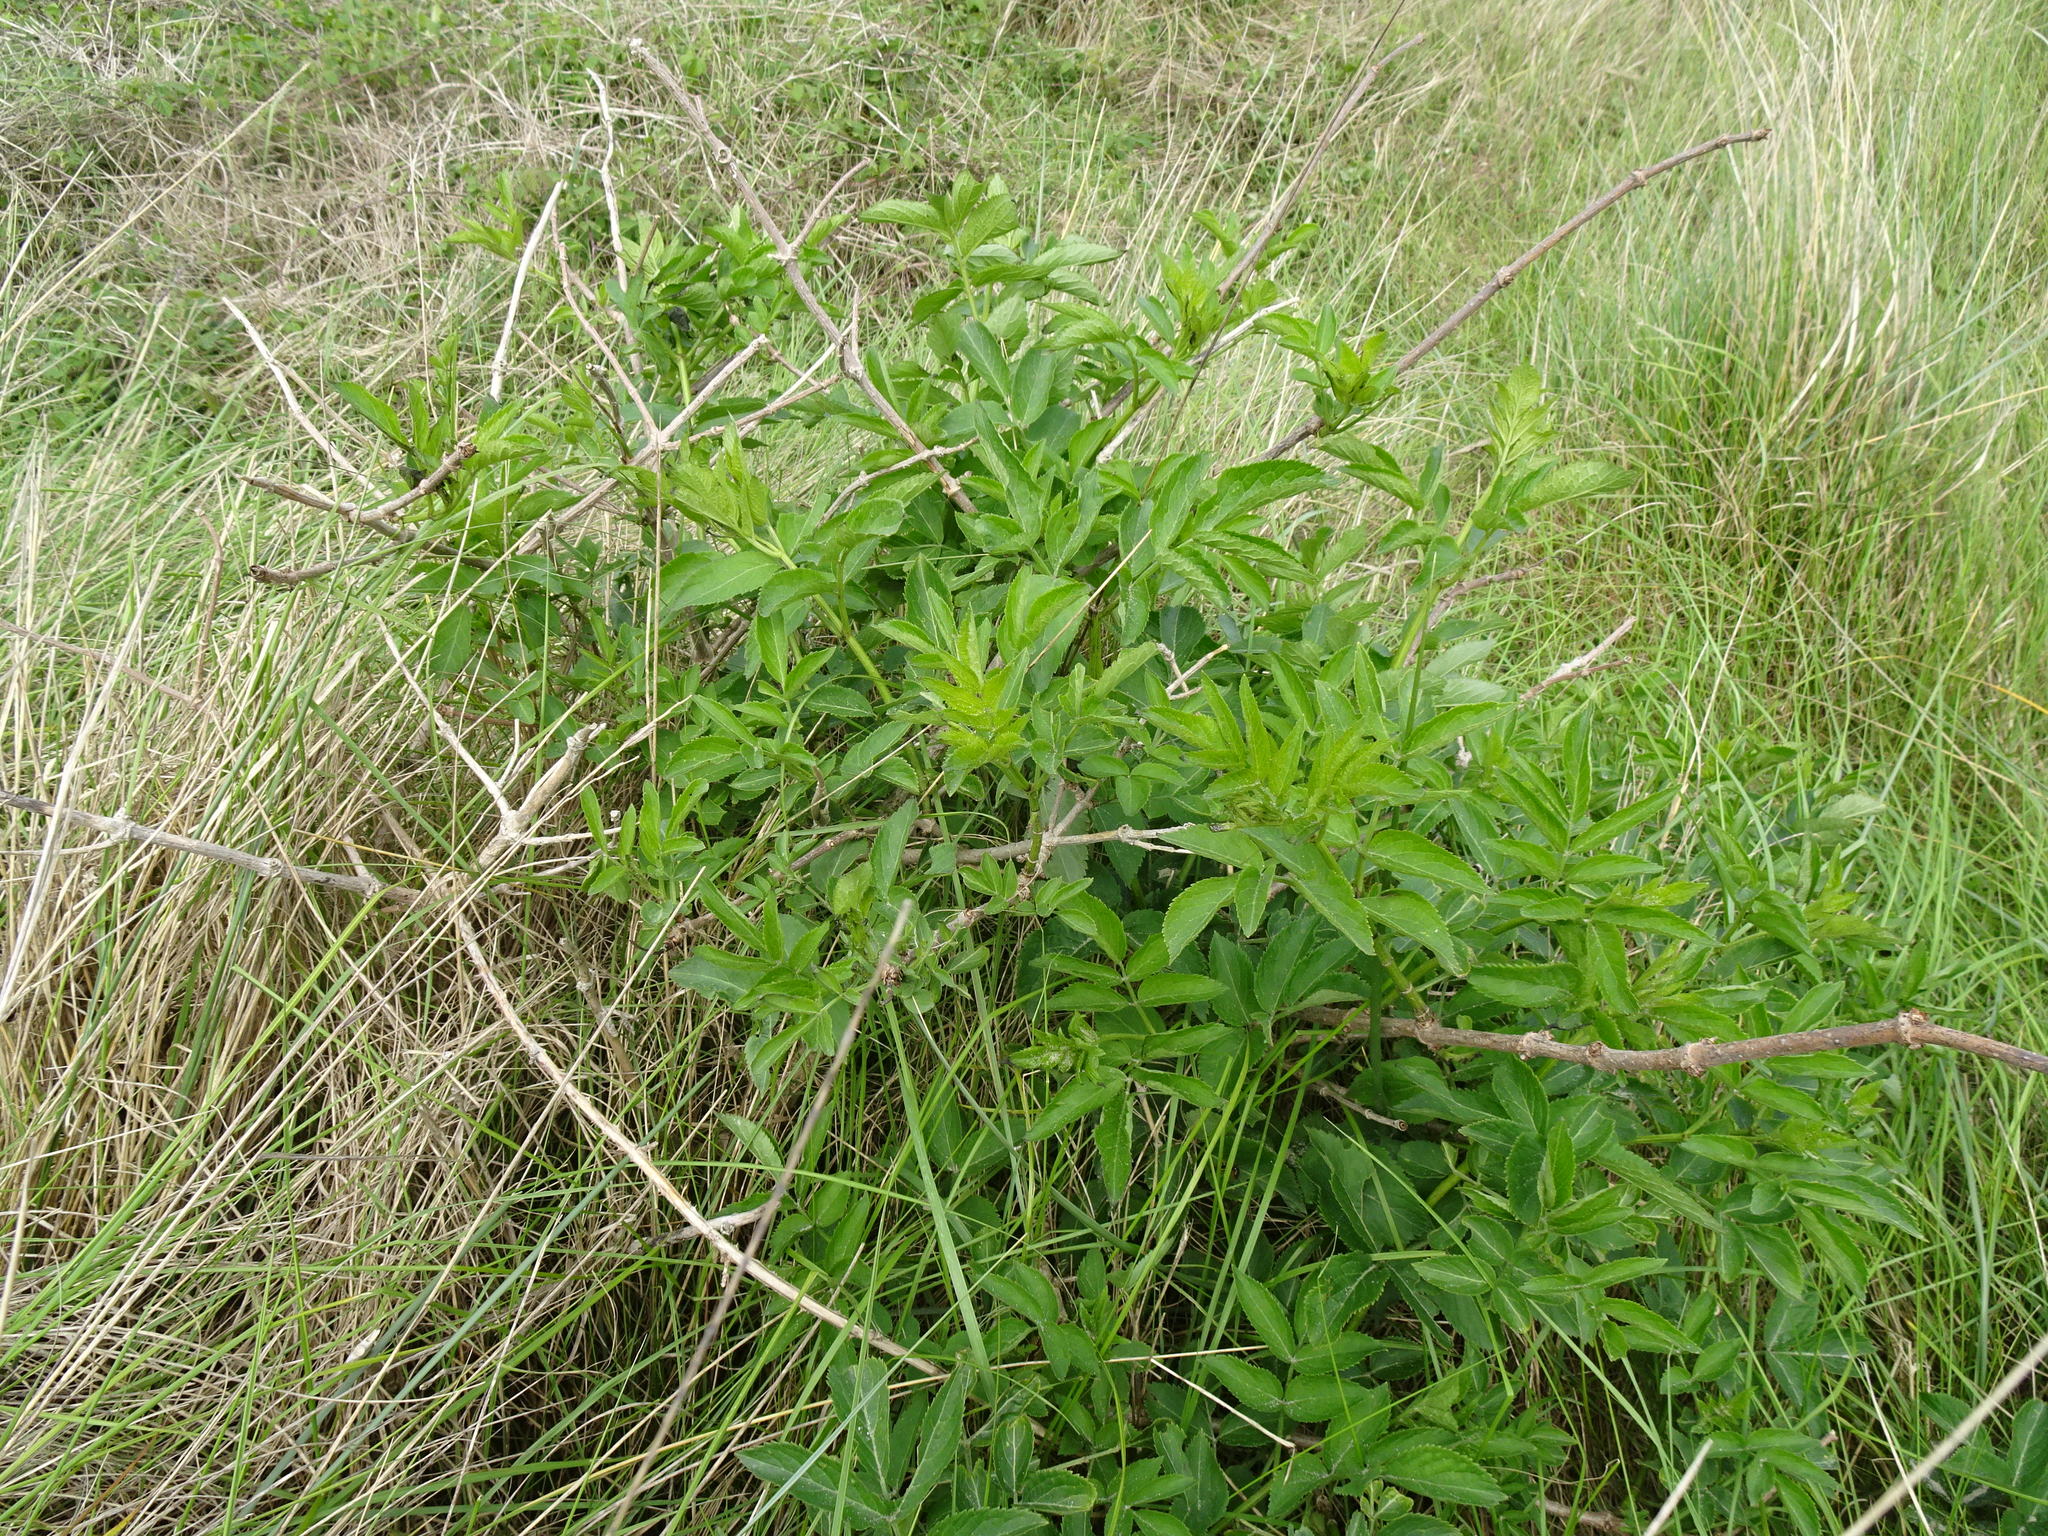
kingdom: Plantae
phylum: Tracheophyta
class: Magnoliopsida
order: Dipsacales
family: Viburnaceae
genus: Sambucus
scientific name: Sambucus nigra
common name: Elder
